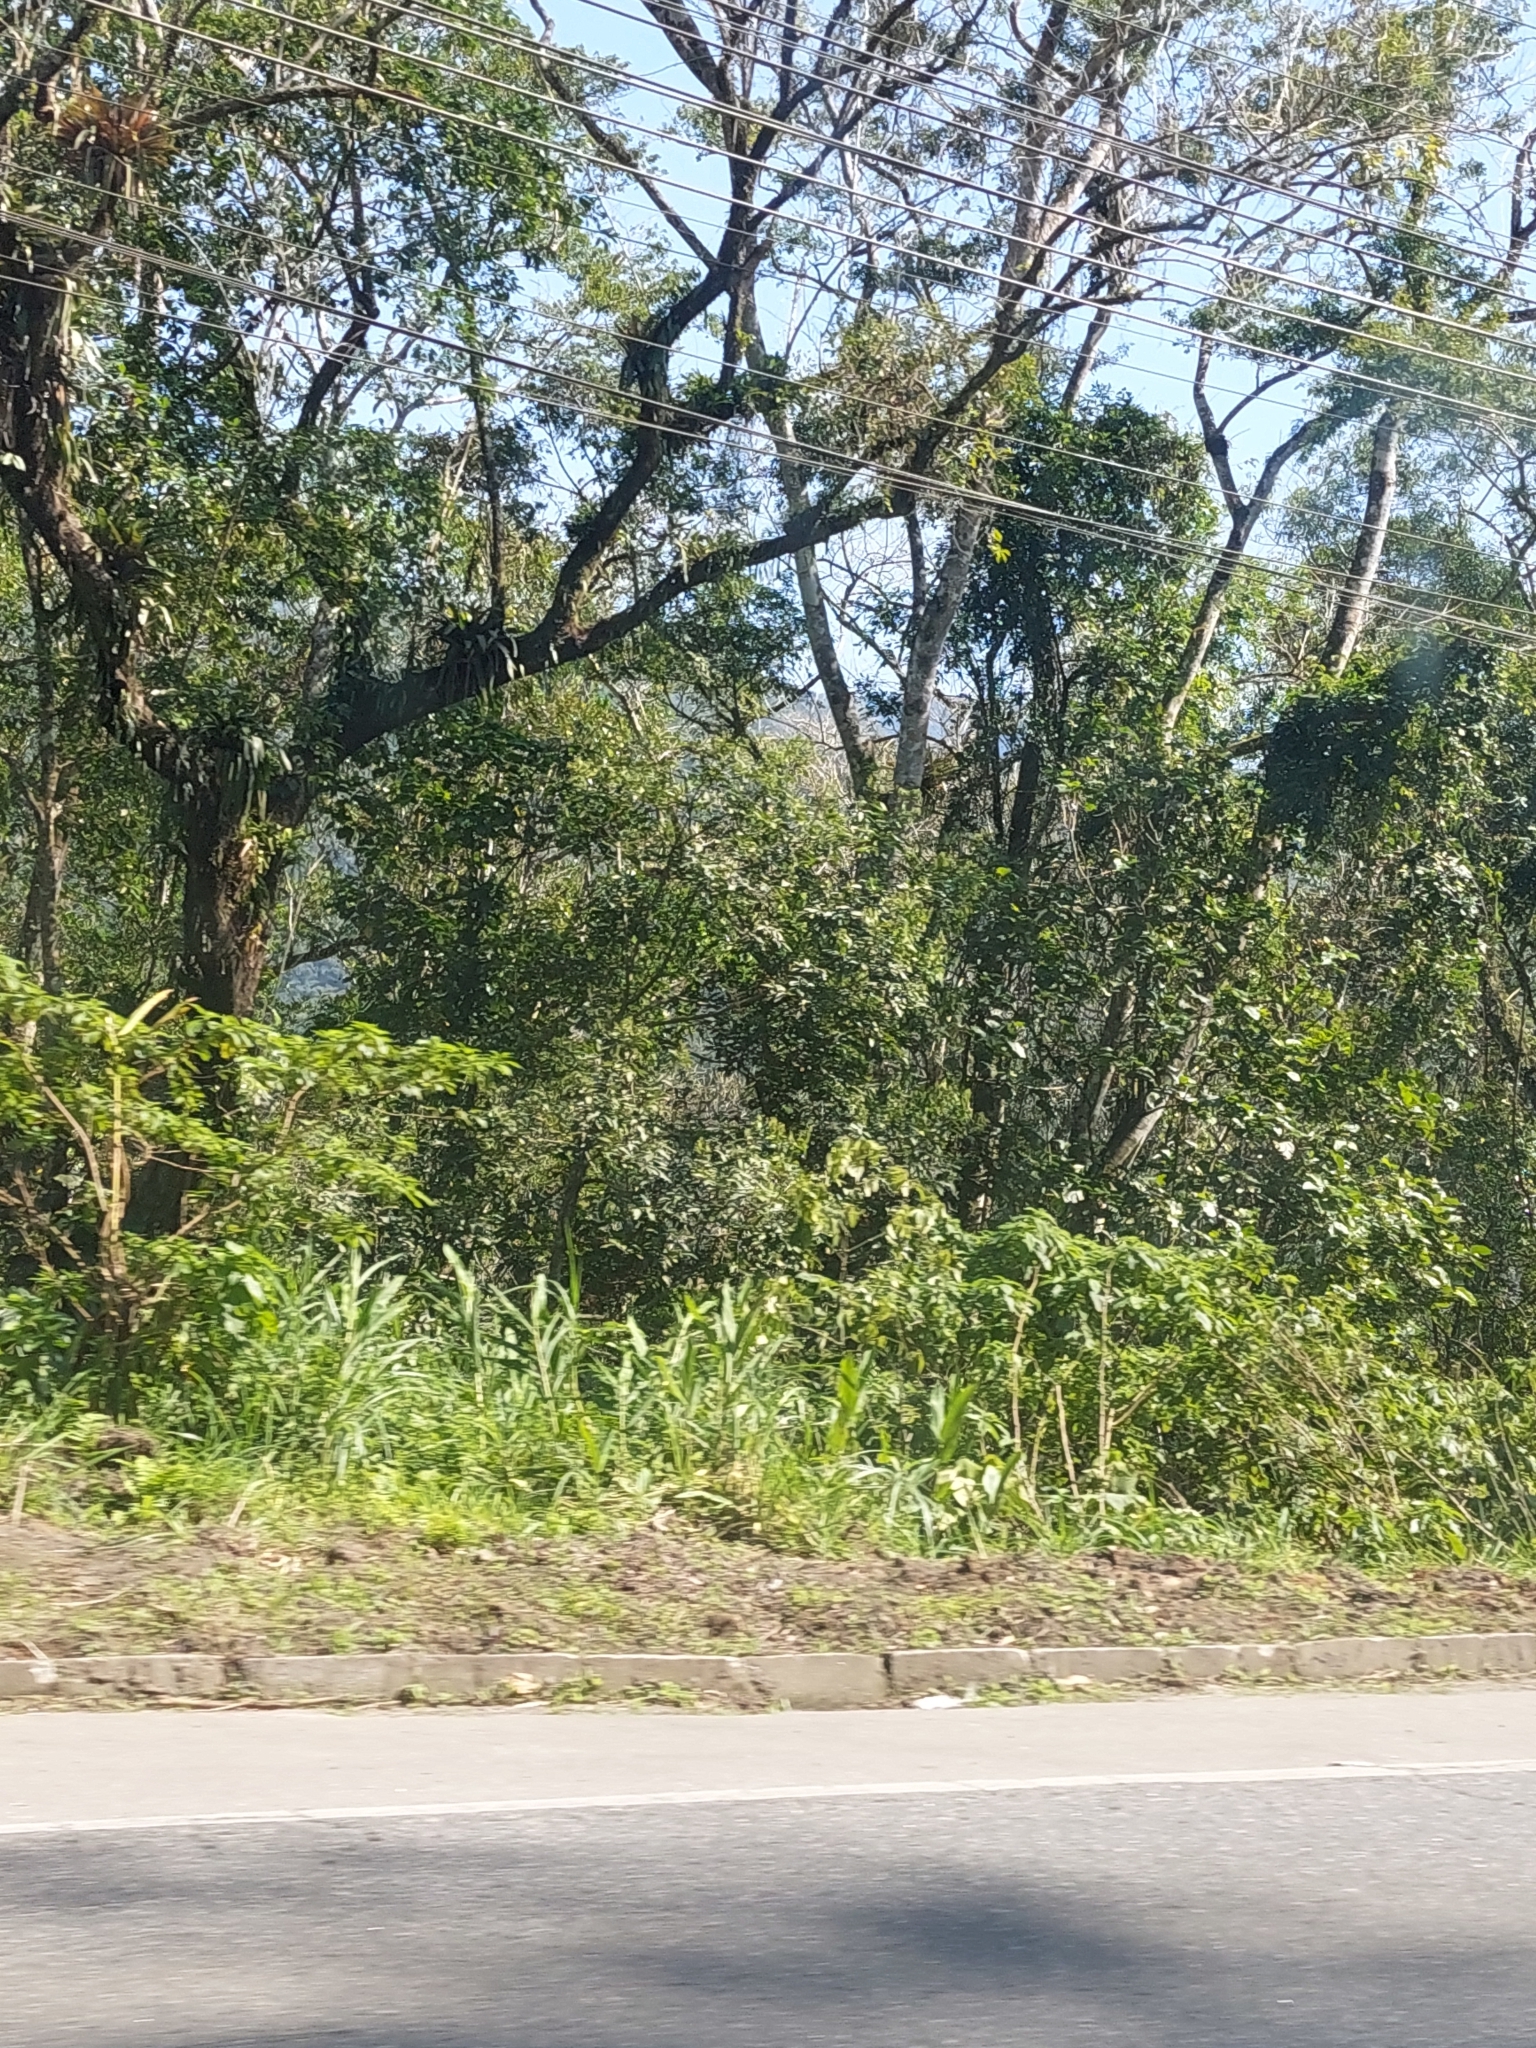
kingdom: Plantae
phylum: Tracheophyta
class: Liliopsida
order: Zingiberales
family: Zingiberaceae
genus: Hedychium
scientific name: Hedychium coronarium
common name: White garland-lily
